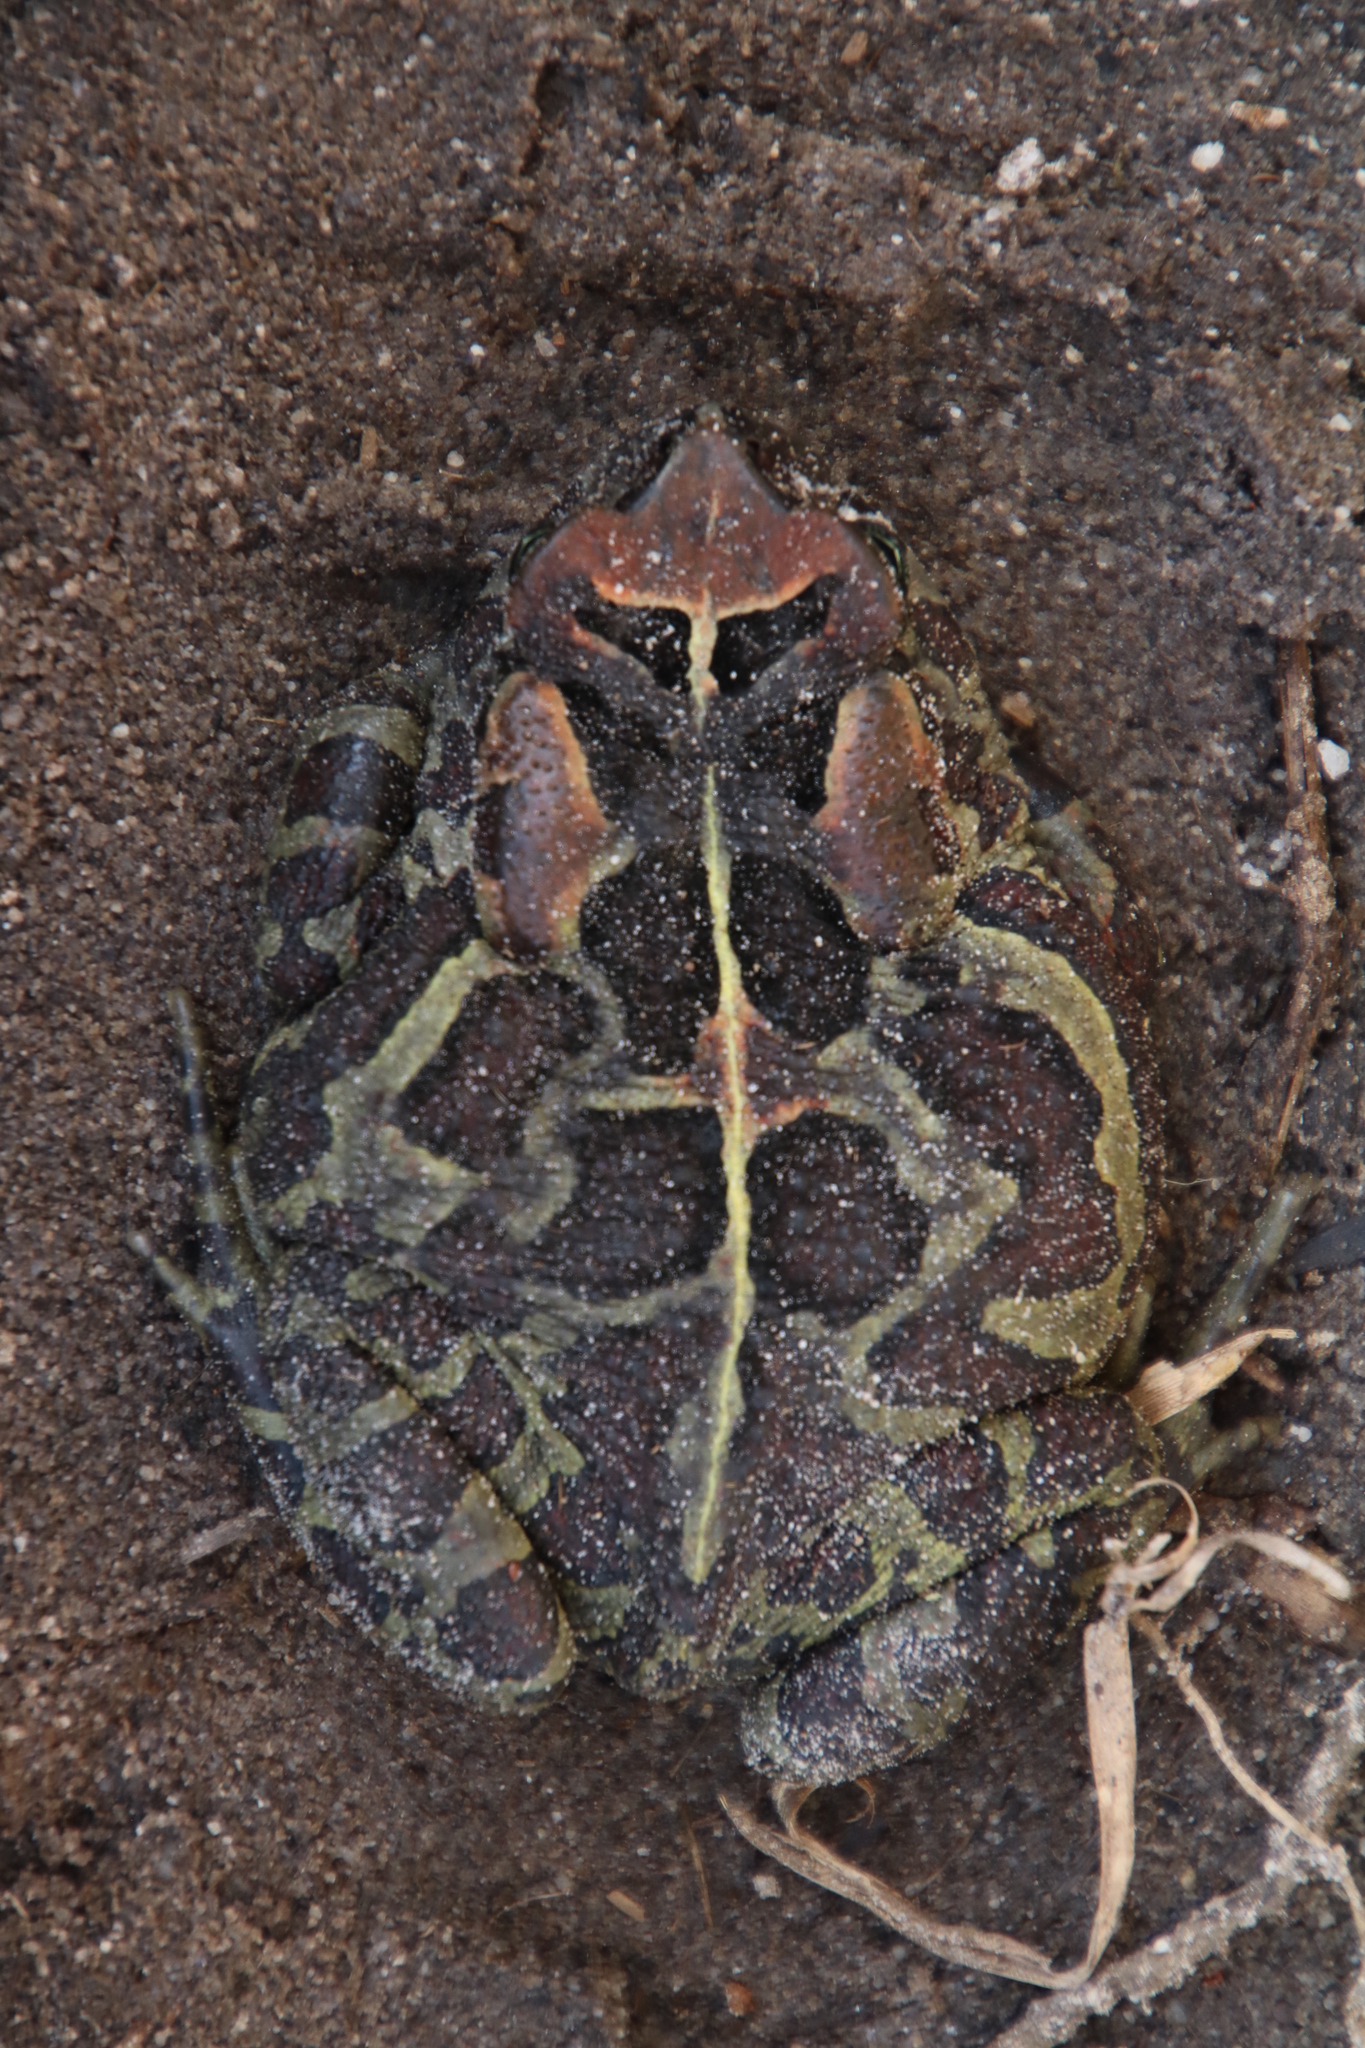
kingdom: Animalia
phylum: Chordata
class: Amphibia
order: Anura
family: Bufonidae
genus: Sclerophrys
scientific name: Sclerophrys pantherina
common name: Panther toad
